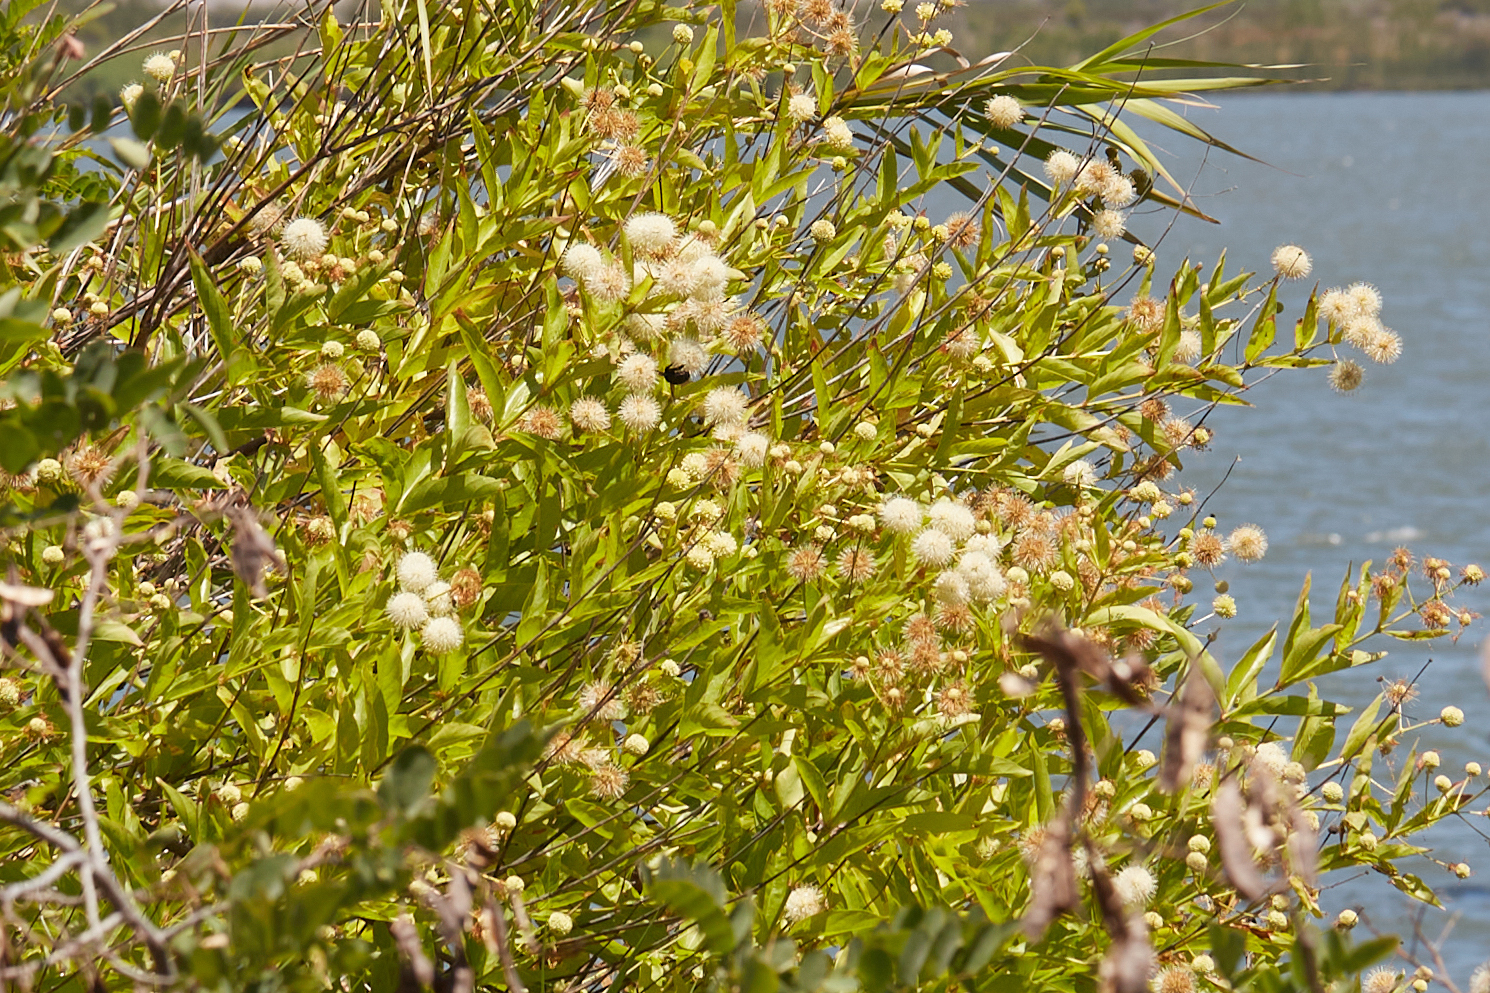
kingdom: Plantae
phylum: Tracheophyta
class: Magnoliopsida
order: Gentianales
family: Rubiaceae
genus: Cephalanthus
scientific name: Cephalanthus occidentalis
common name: Button-willow
